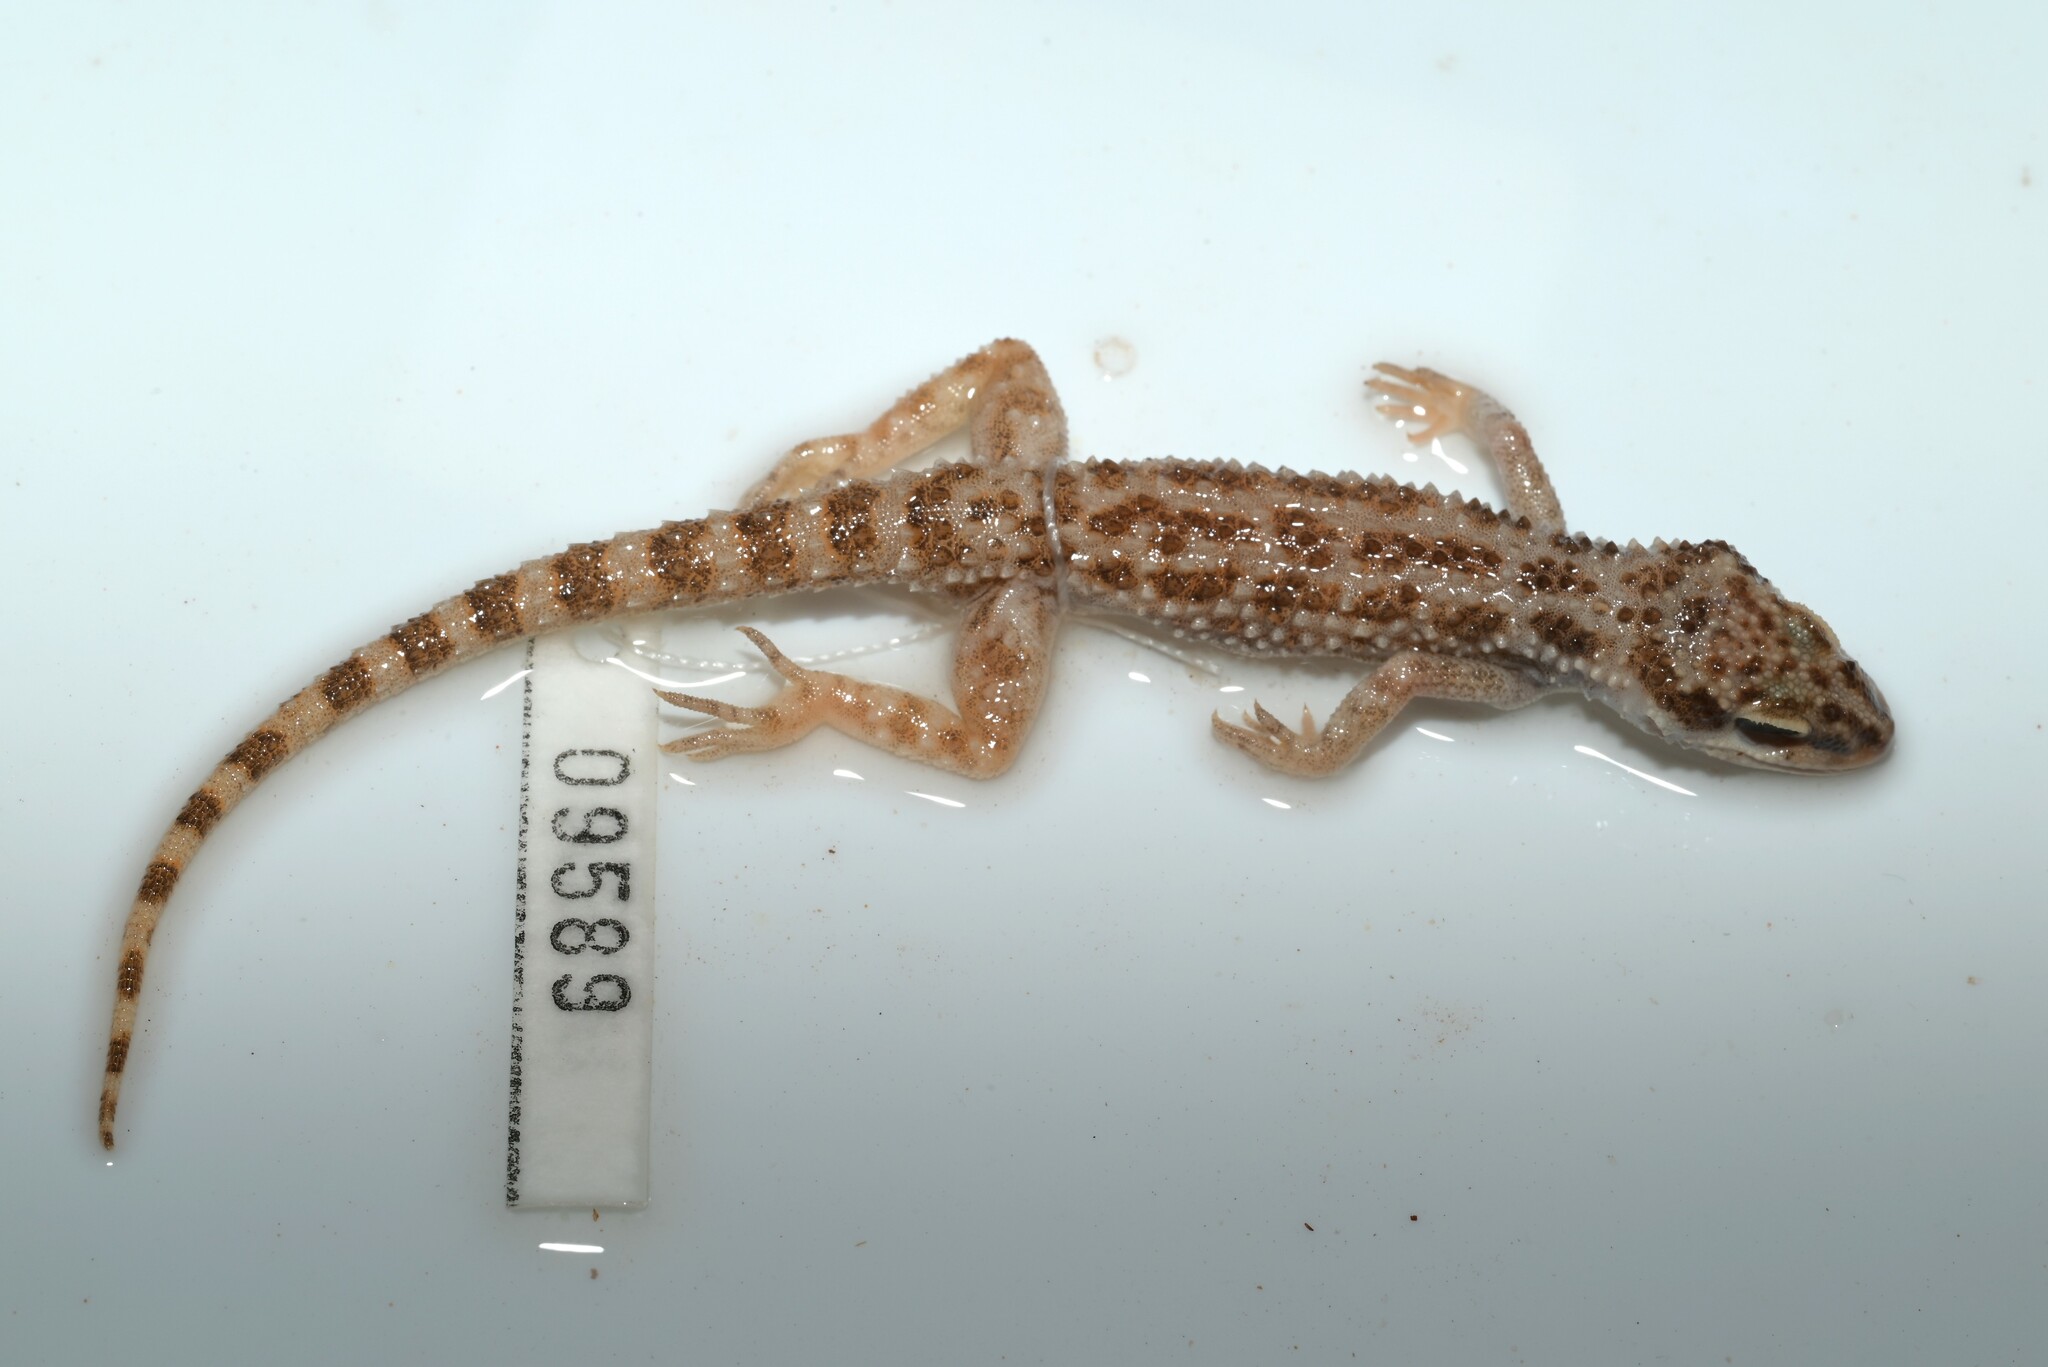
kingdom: Animalia
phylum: Chordata
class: Squamata
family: Gekkonidae
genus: Bunopus
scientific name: Bunopus tuberculatus
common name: Southern tuberculated gecko
